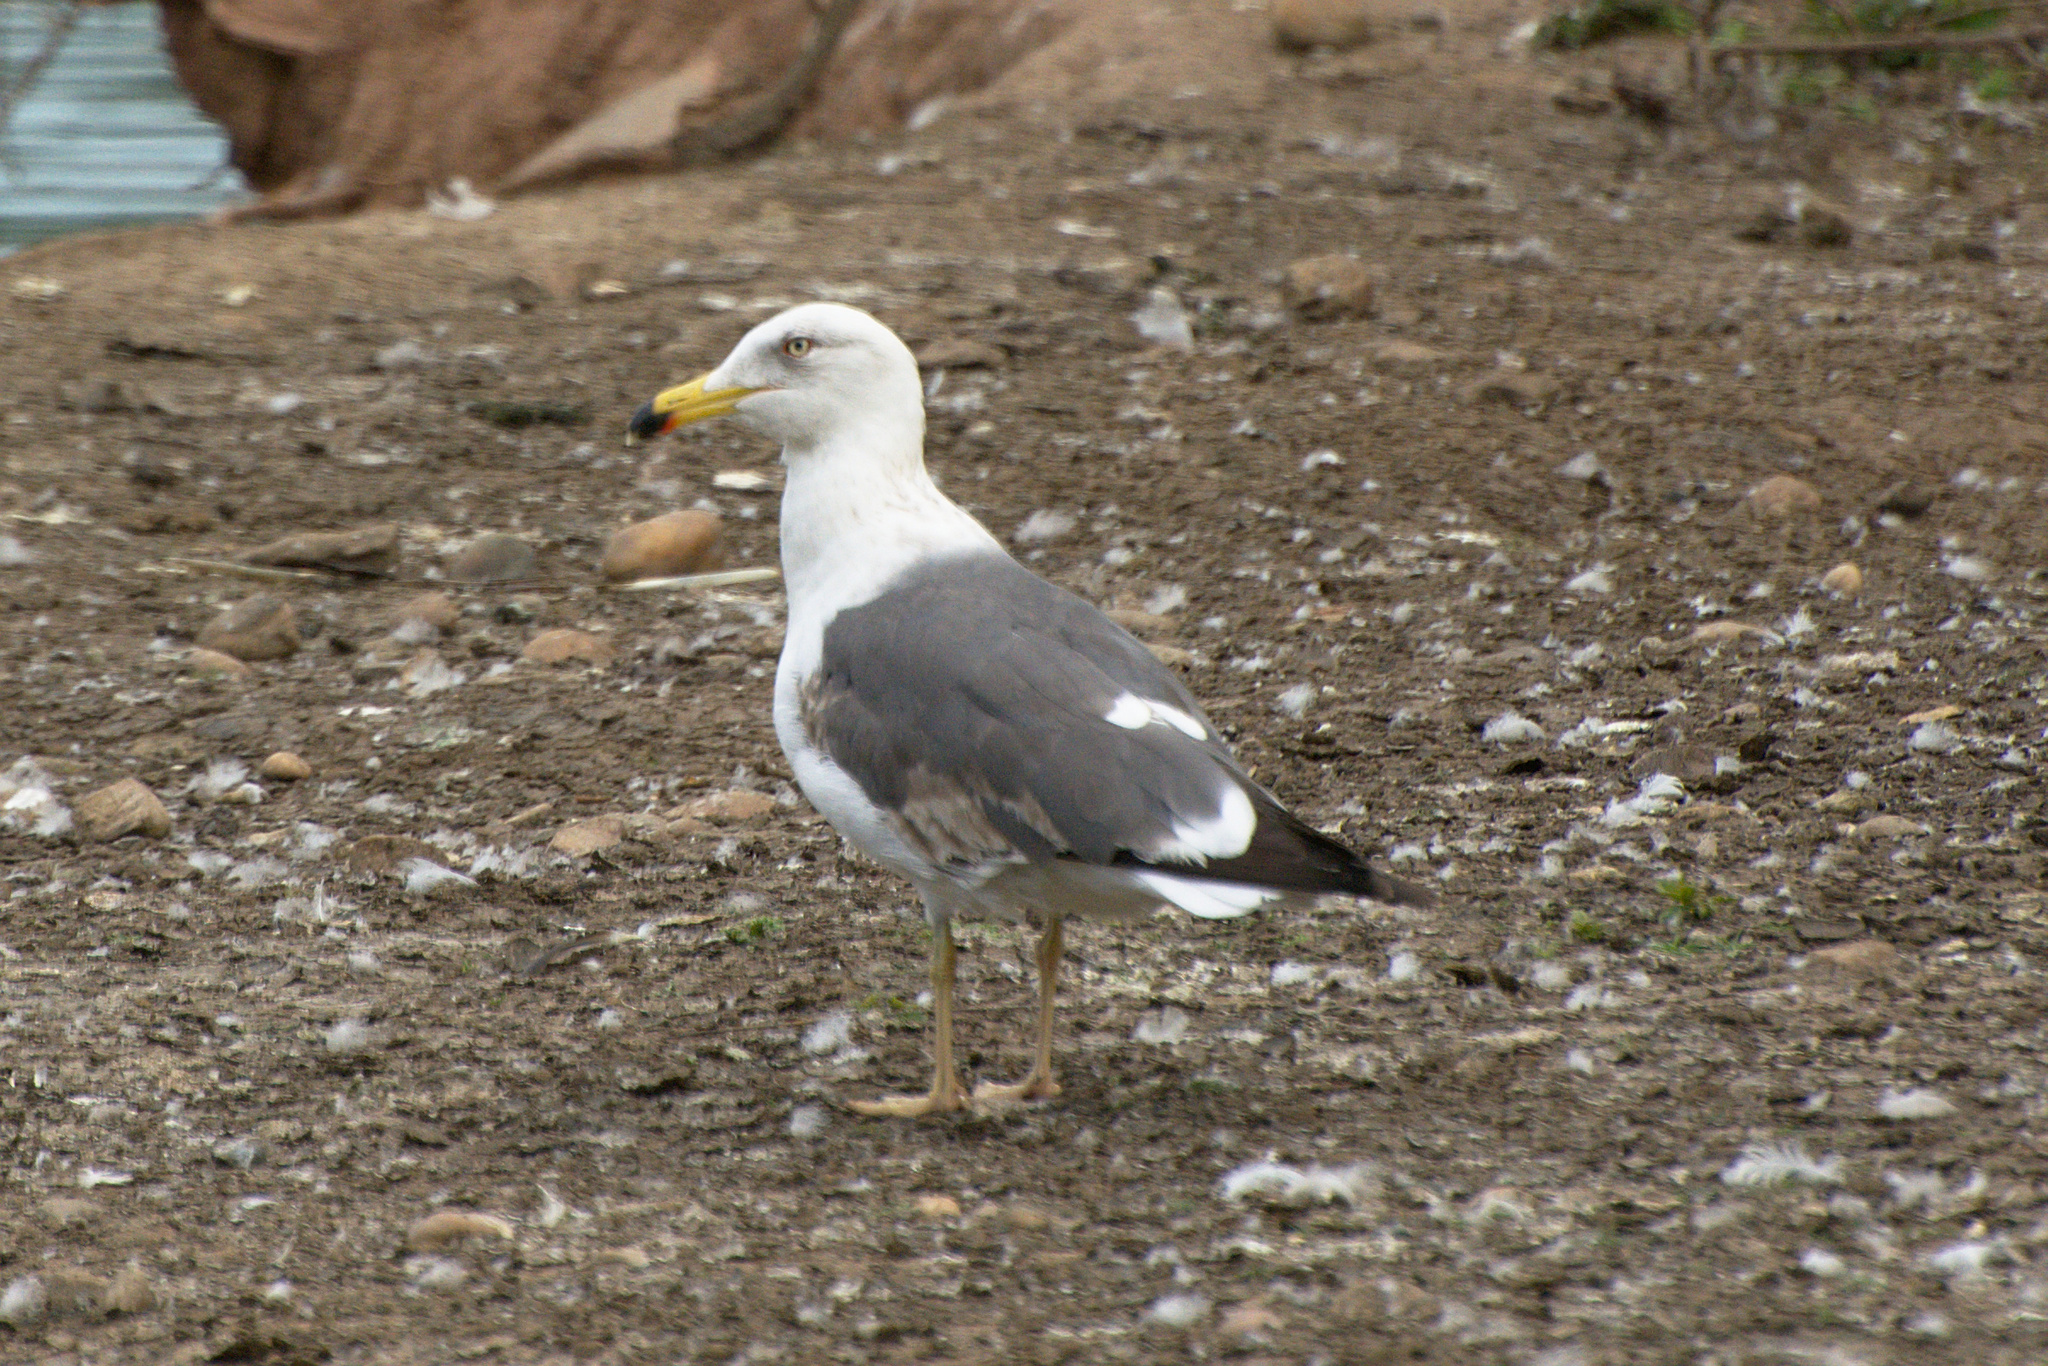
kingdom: Animalia
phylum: Chordata
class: Aves
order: Charadriiformes
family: Laridae
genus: Larus
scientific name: Larus fuscus
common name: Lesser black-backed gull
